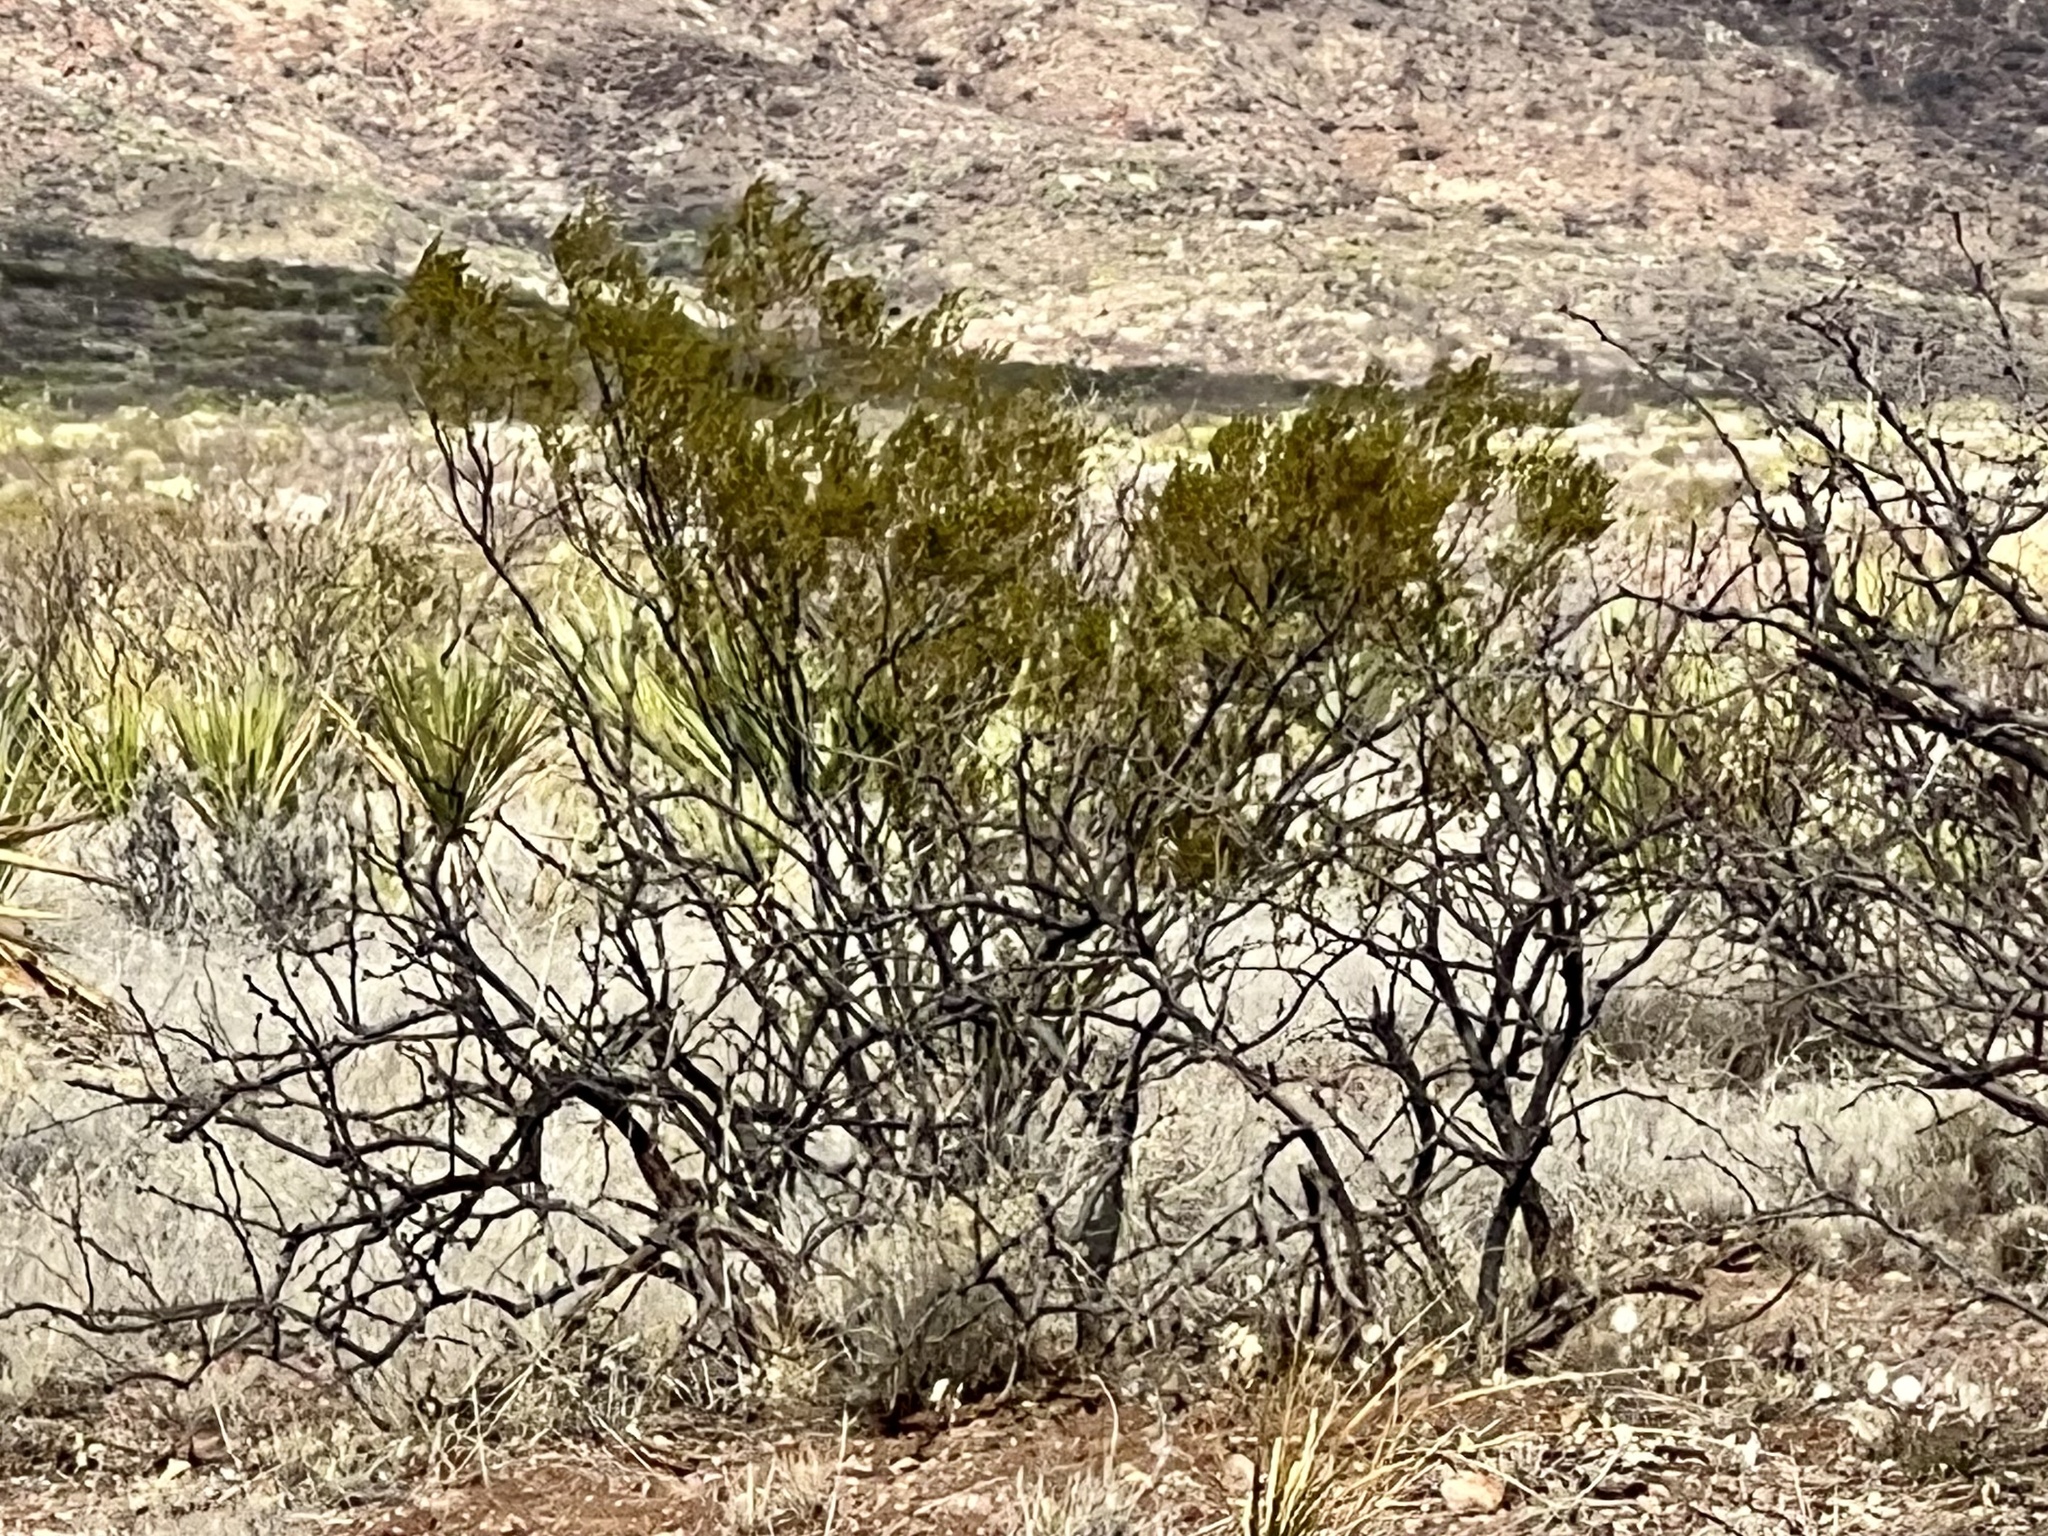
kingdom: Plantae
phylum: Tracheophyta
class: Magnoliopsida
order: Zygophyllales
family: Zygophyllaceae
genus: Larrea
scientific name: Larrea tridentata
